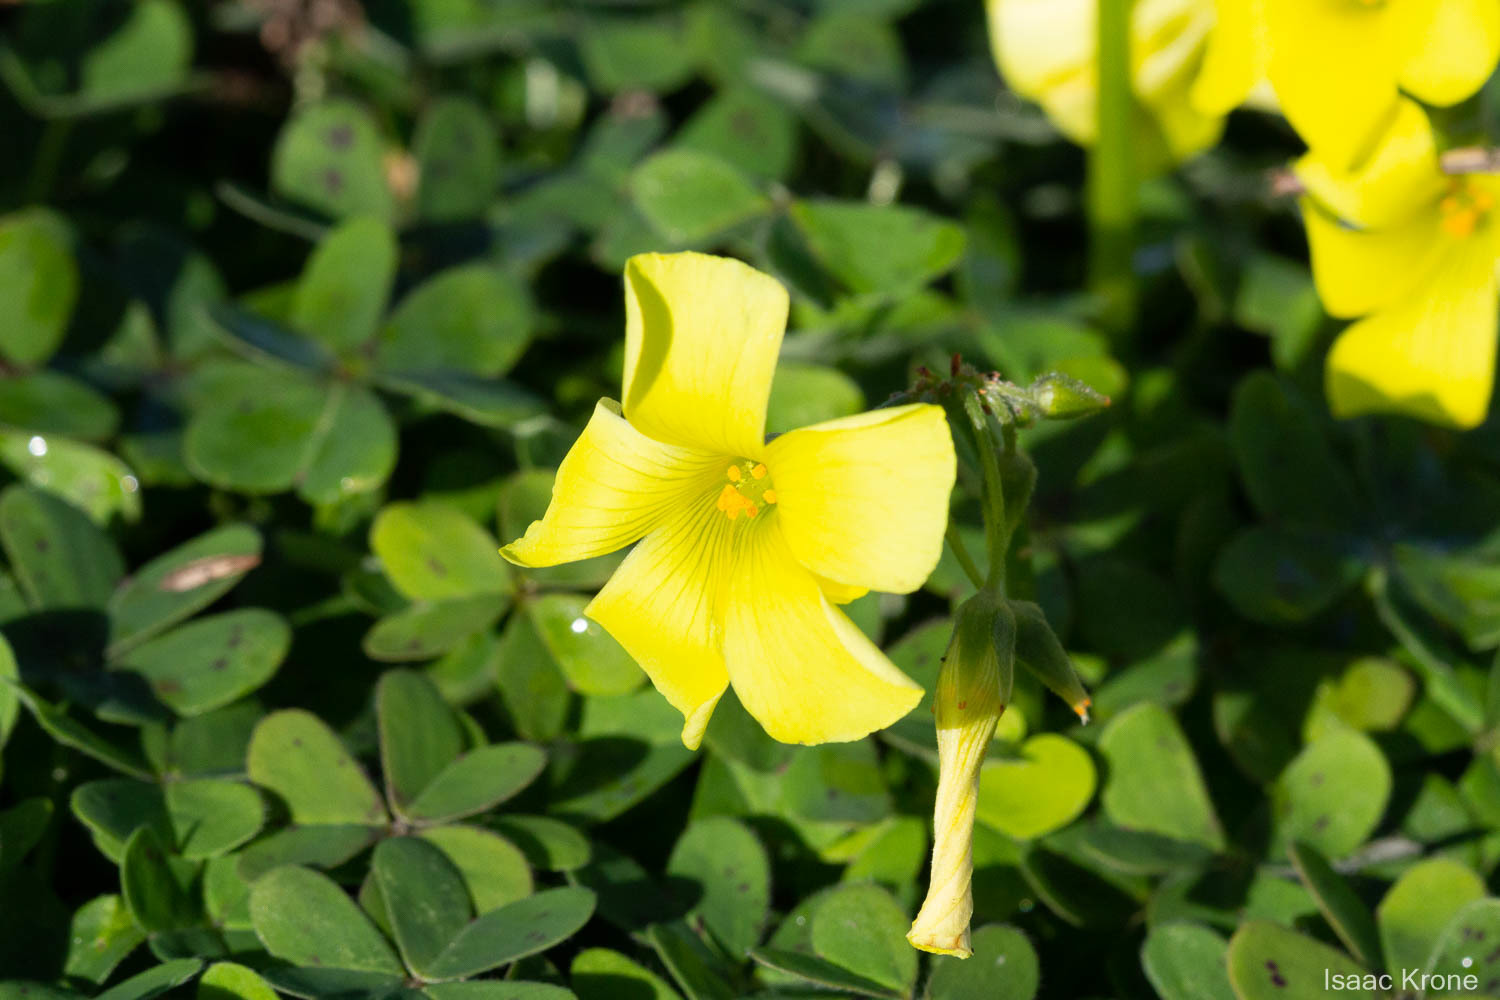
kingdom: Plantae
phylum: Tracheophyta
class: Magnoliopsida
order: Oxalidales
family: Oxalidaceae
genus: Oxalis
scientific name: Oxalis pes-caprae
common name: Bermuda-buttercup
